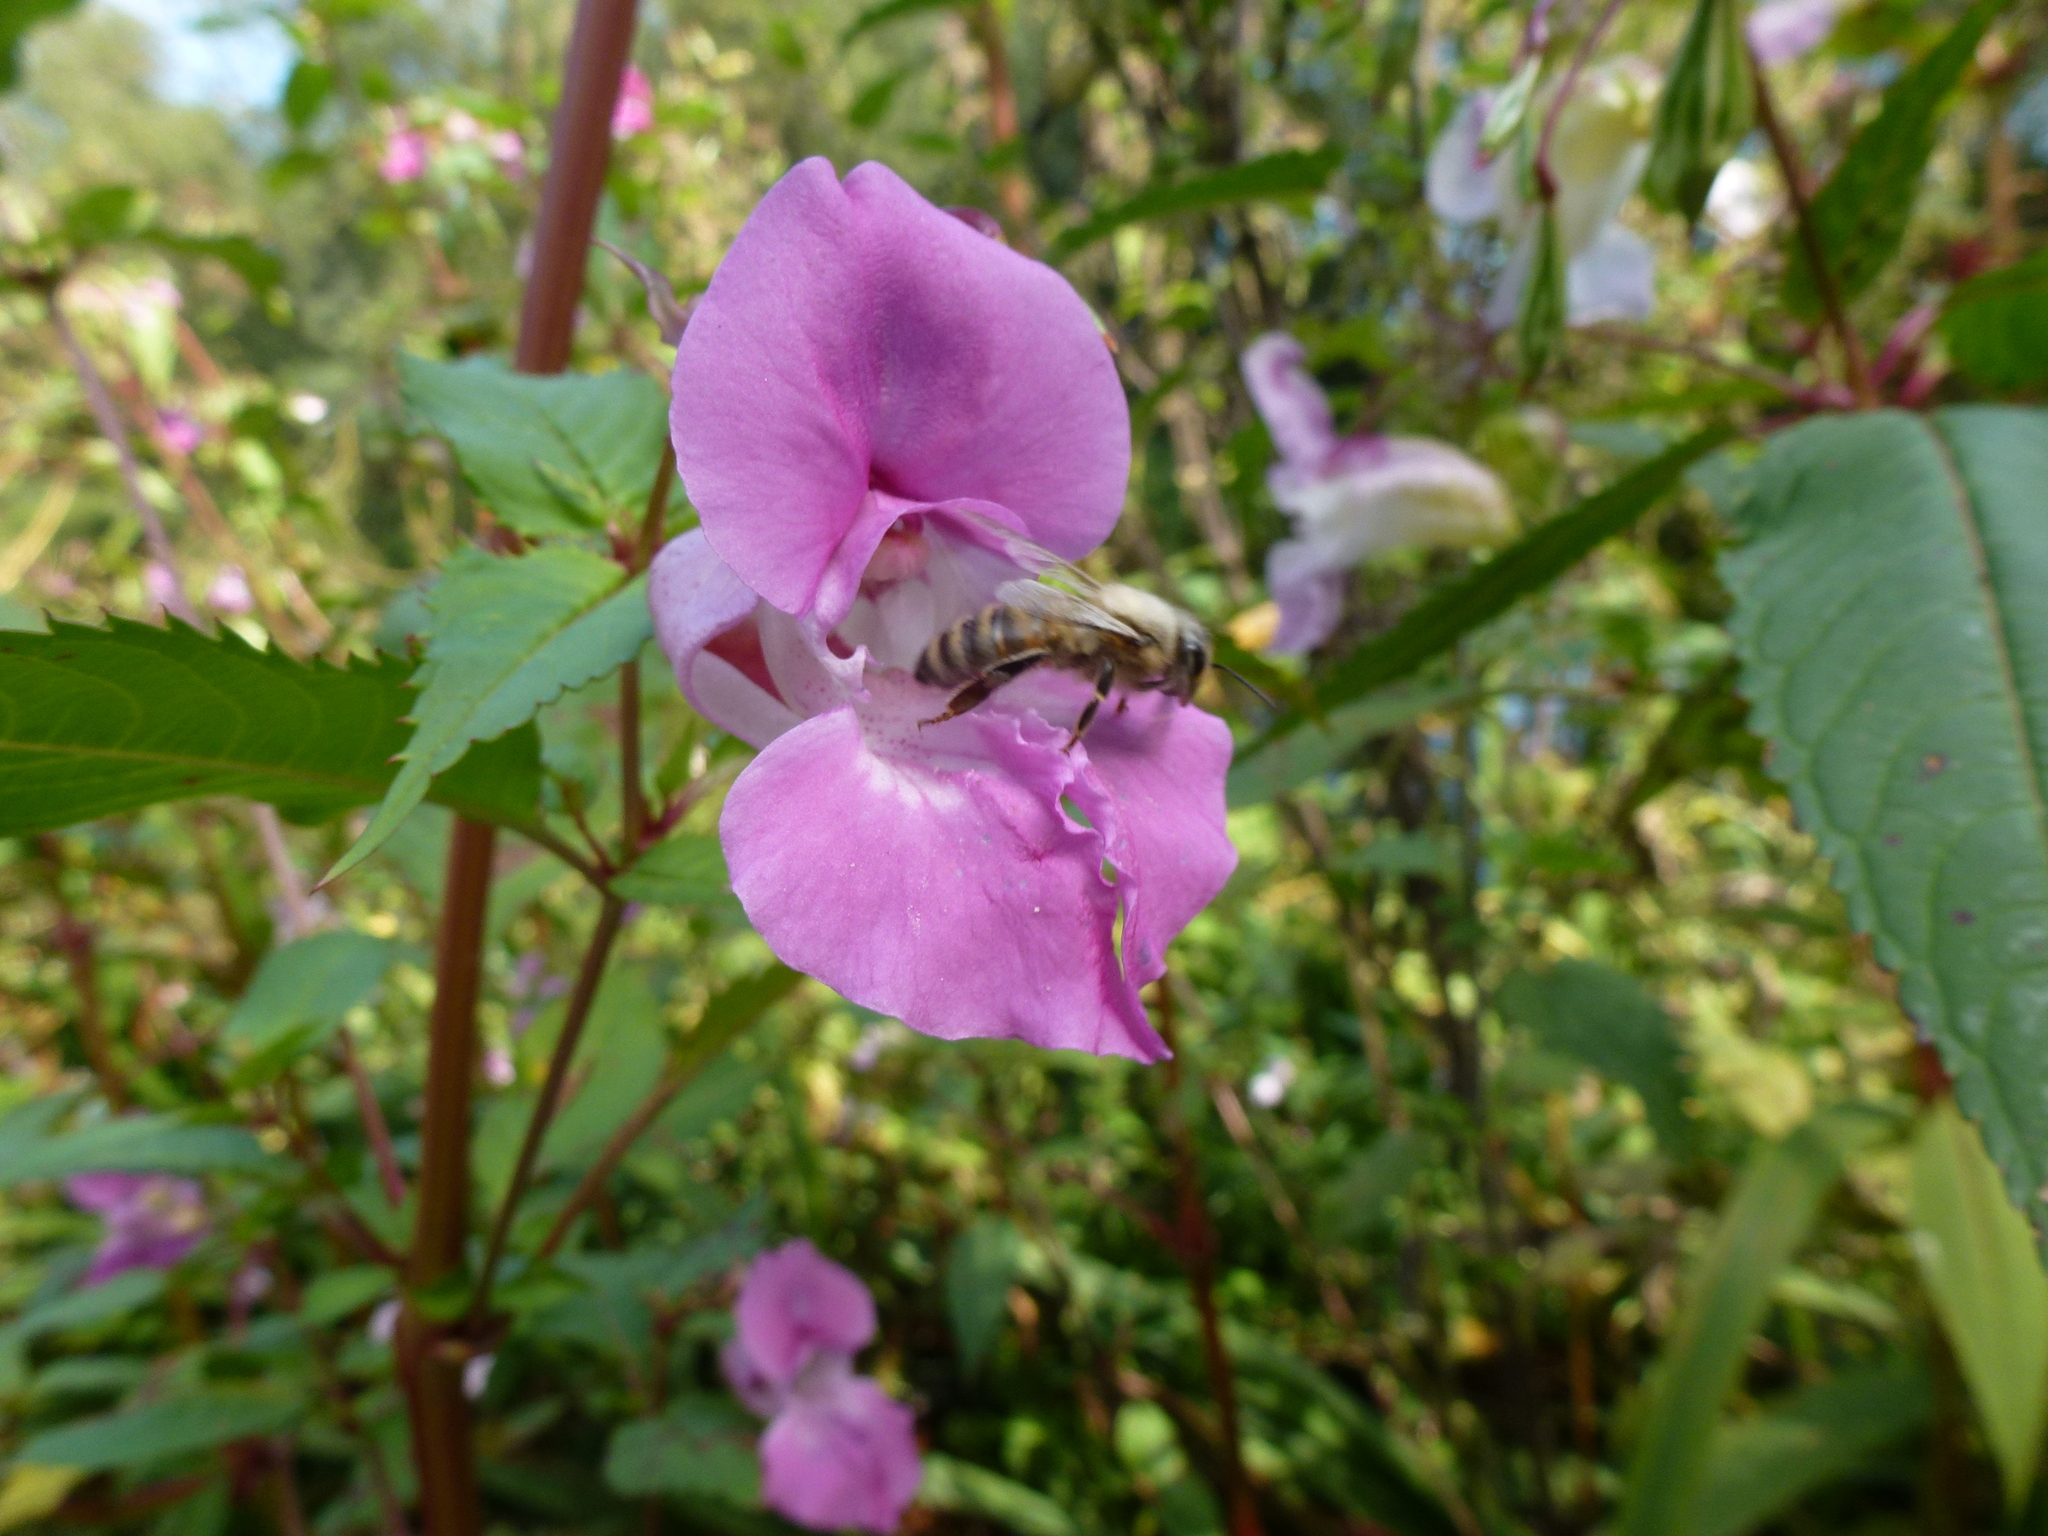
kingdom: Animalia
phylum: Arthropoda
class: Insecta
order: Hymenoptera
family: Apidae
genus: Apis
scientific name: Apis mellifera
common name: Honey bee
